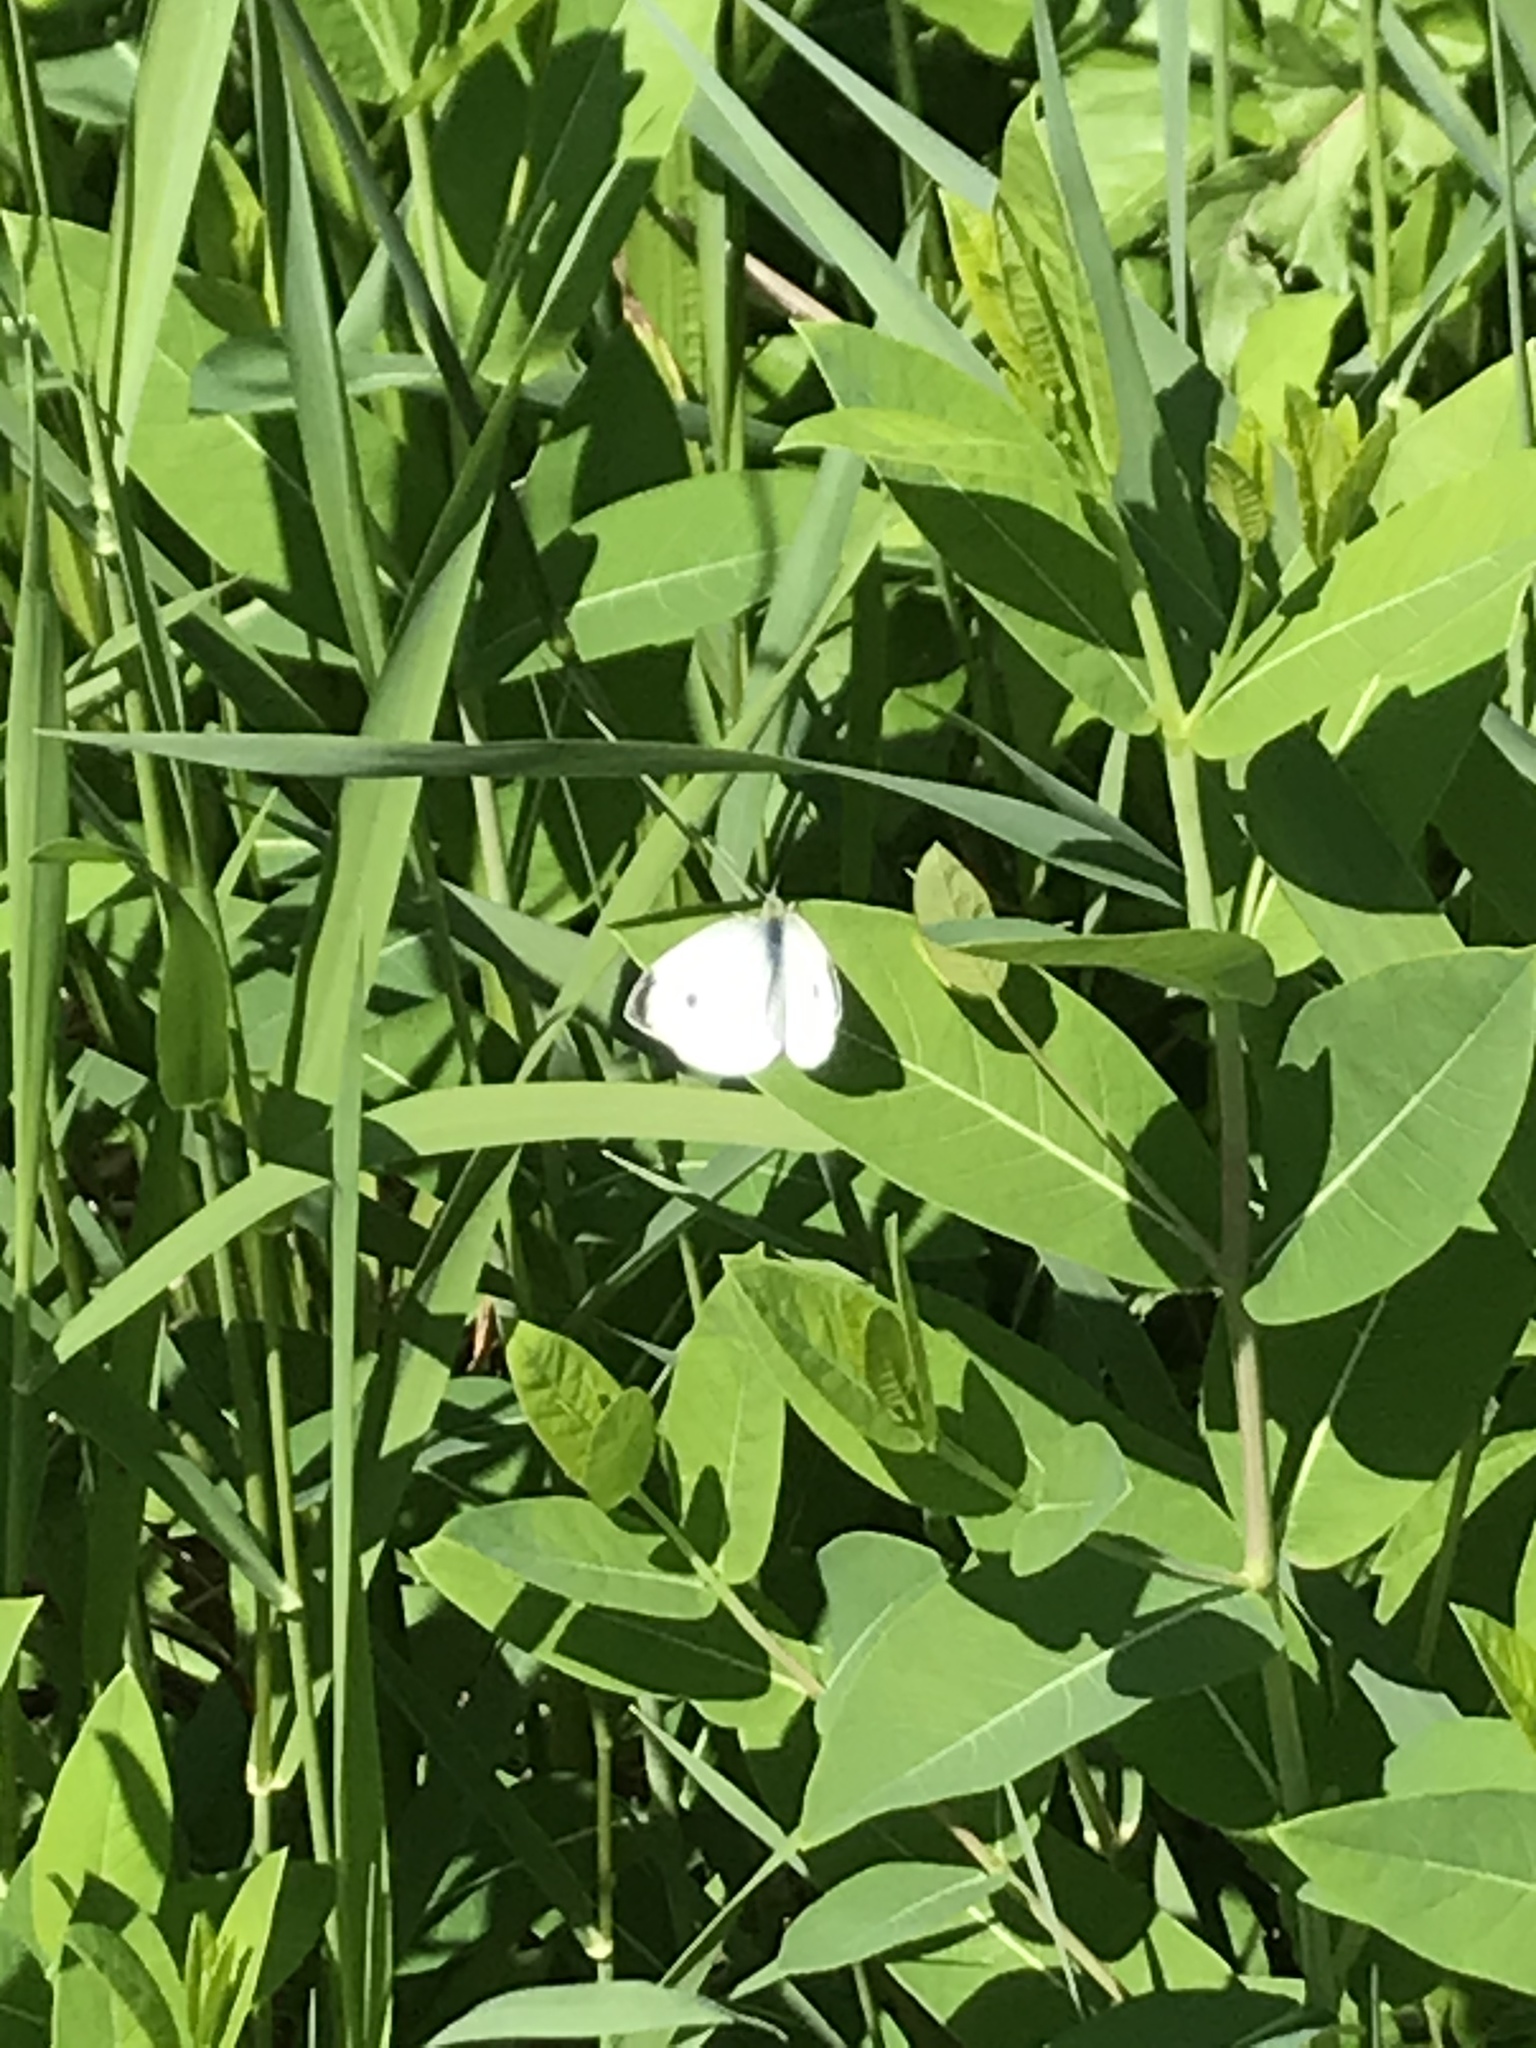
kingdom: Animalia
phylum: Arthropoda
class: Insecta
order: Lepidoptera
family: Pieridae
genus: Pieris
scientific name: Pieris rapae
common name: Small white
